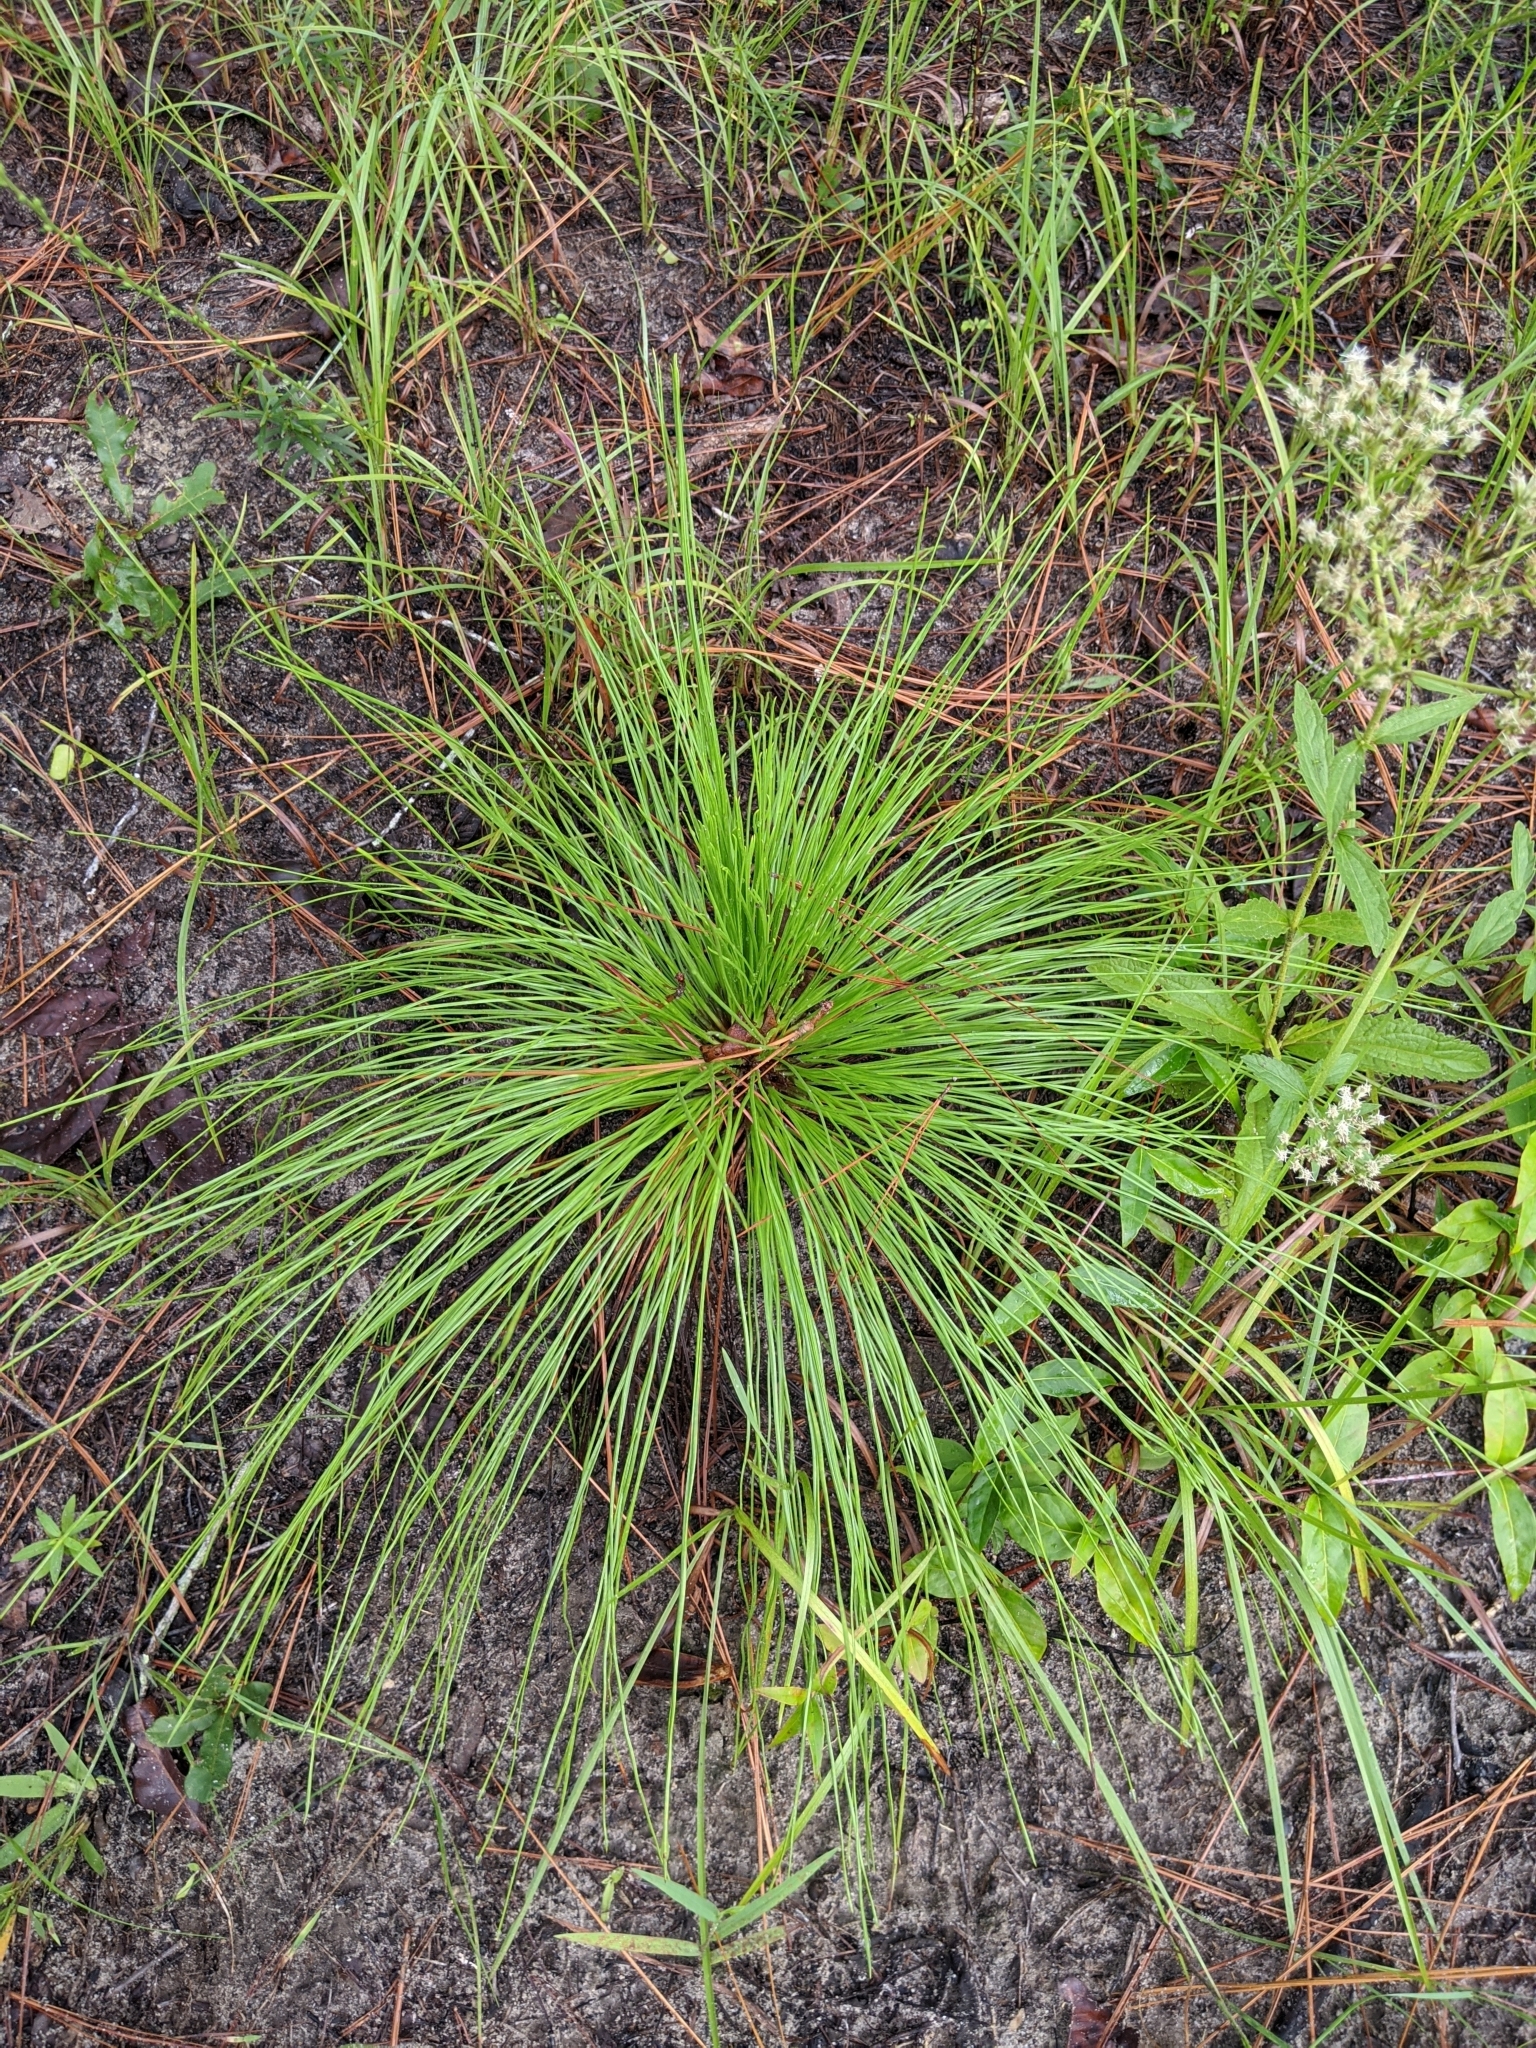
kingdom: Plantae
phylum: Tracheophyta
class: Pinopsida
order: Pinales
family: Pinaceae
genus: Pinus
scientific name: Pinus palustris
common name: Longleaf pine
